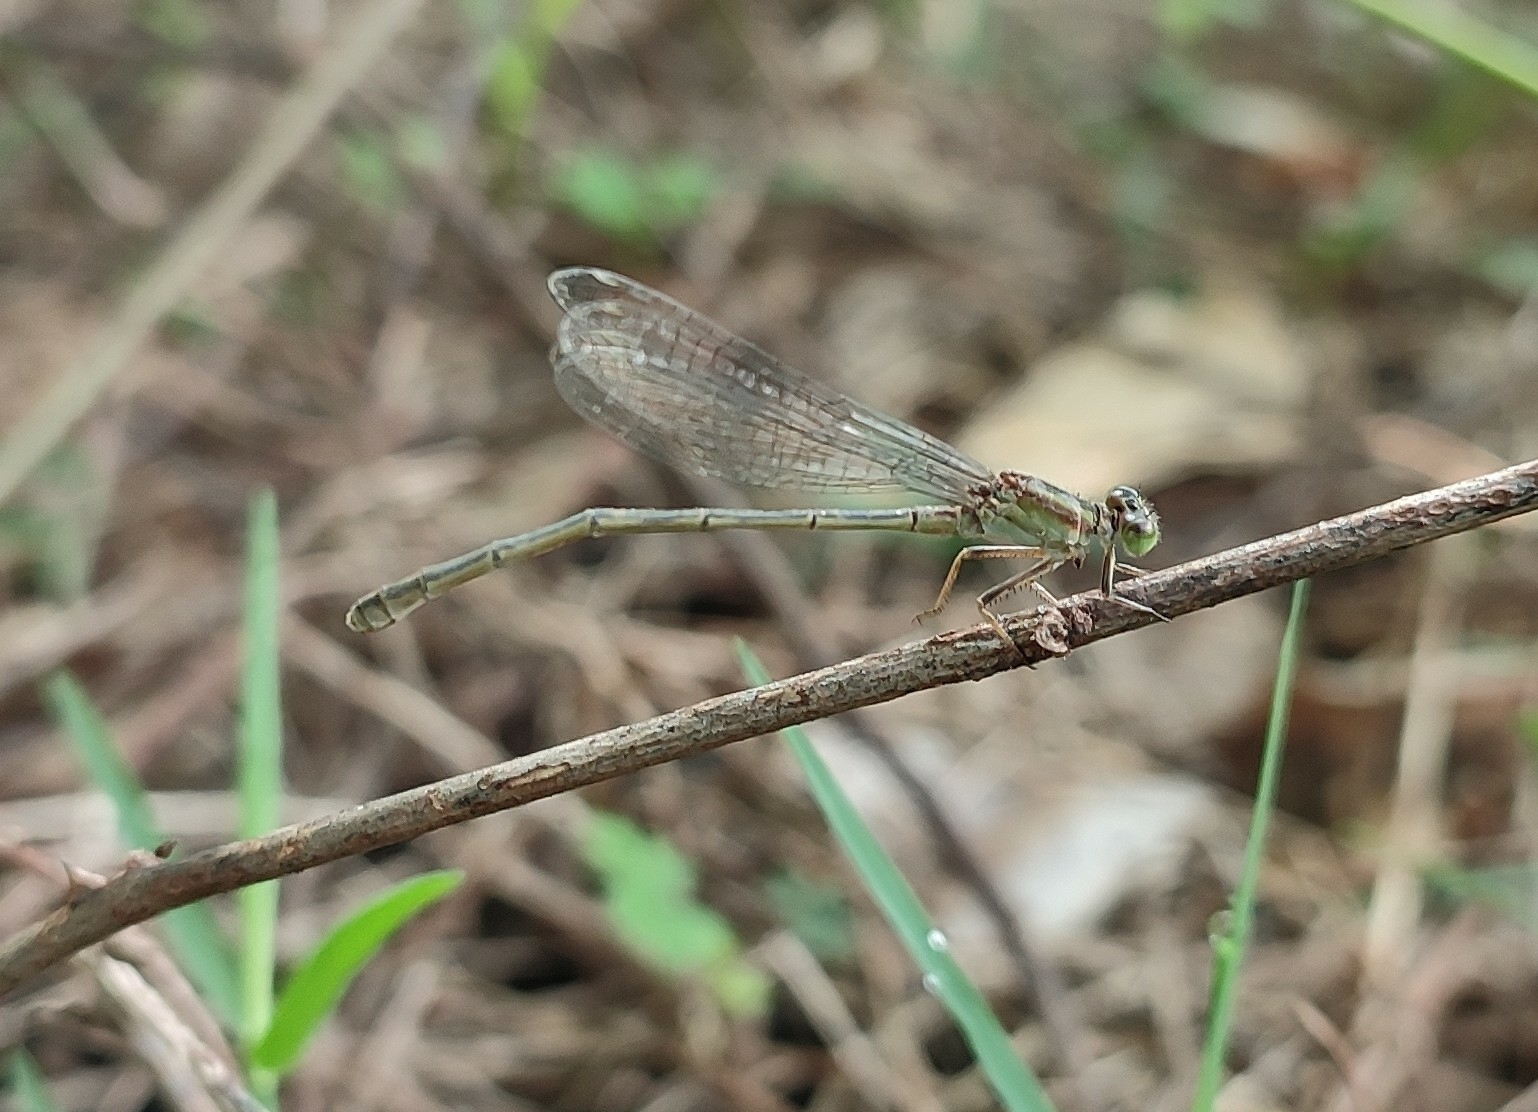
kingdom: Animalia
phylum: Arthropoda
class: Insecta
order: Odonata
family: Coenagrionidae
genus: Ischnura
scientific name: Ischnura senegalensis
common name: Tropical bluetail
